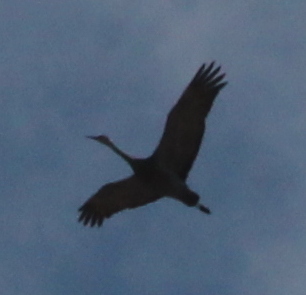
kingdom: Animalia
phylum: Chordata
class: Aves
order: Gruiformes
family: Gruidae
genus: Grus
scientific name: Grus canadensis
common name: Sandhill crane
